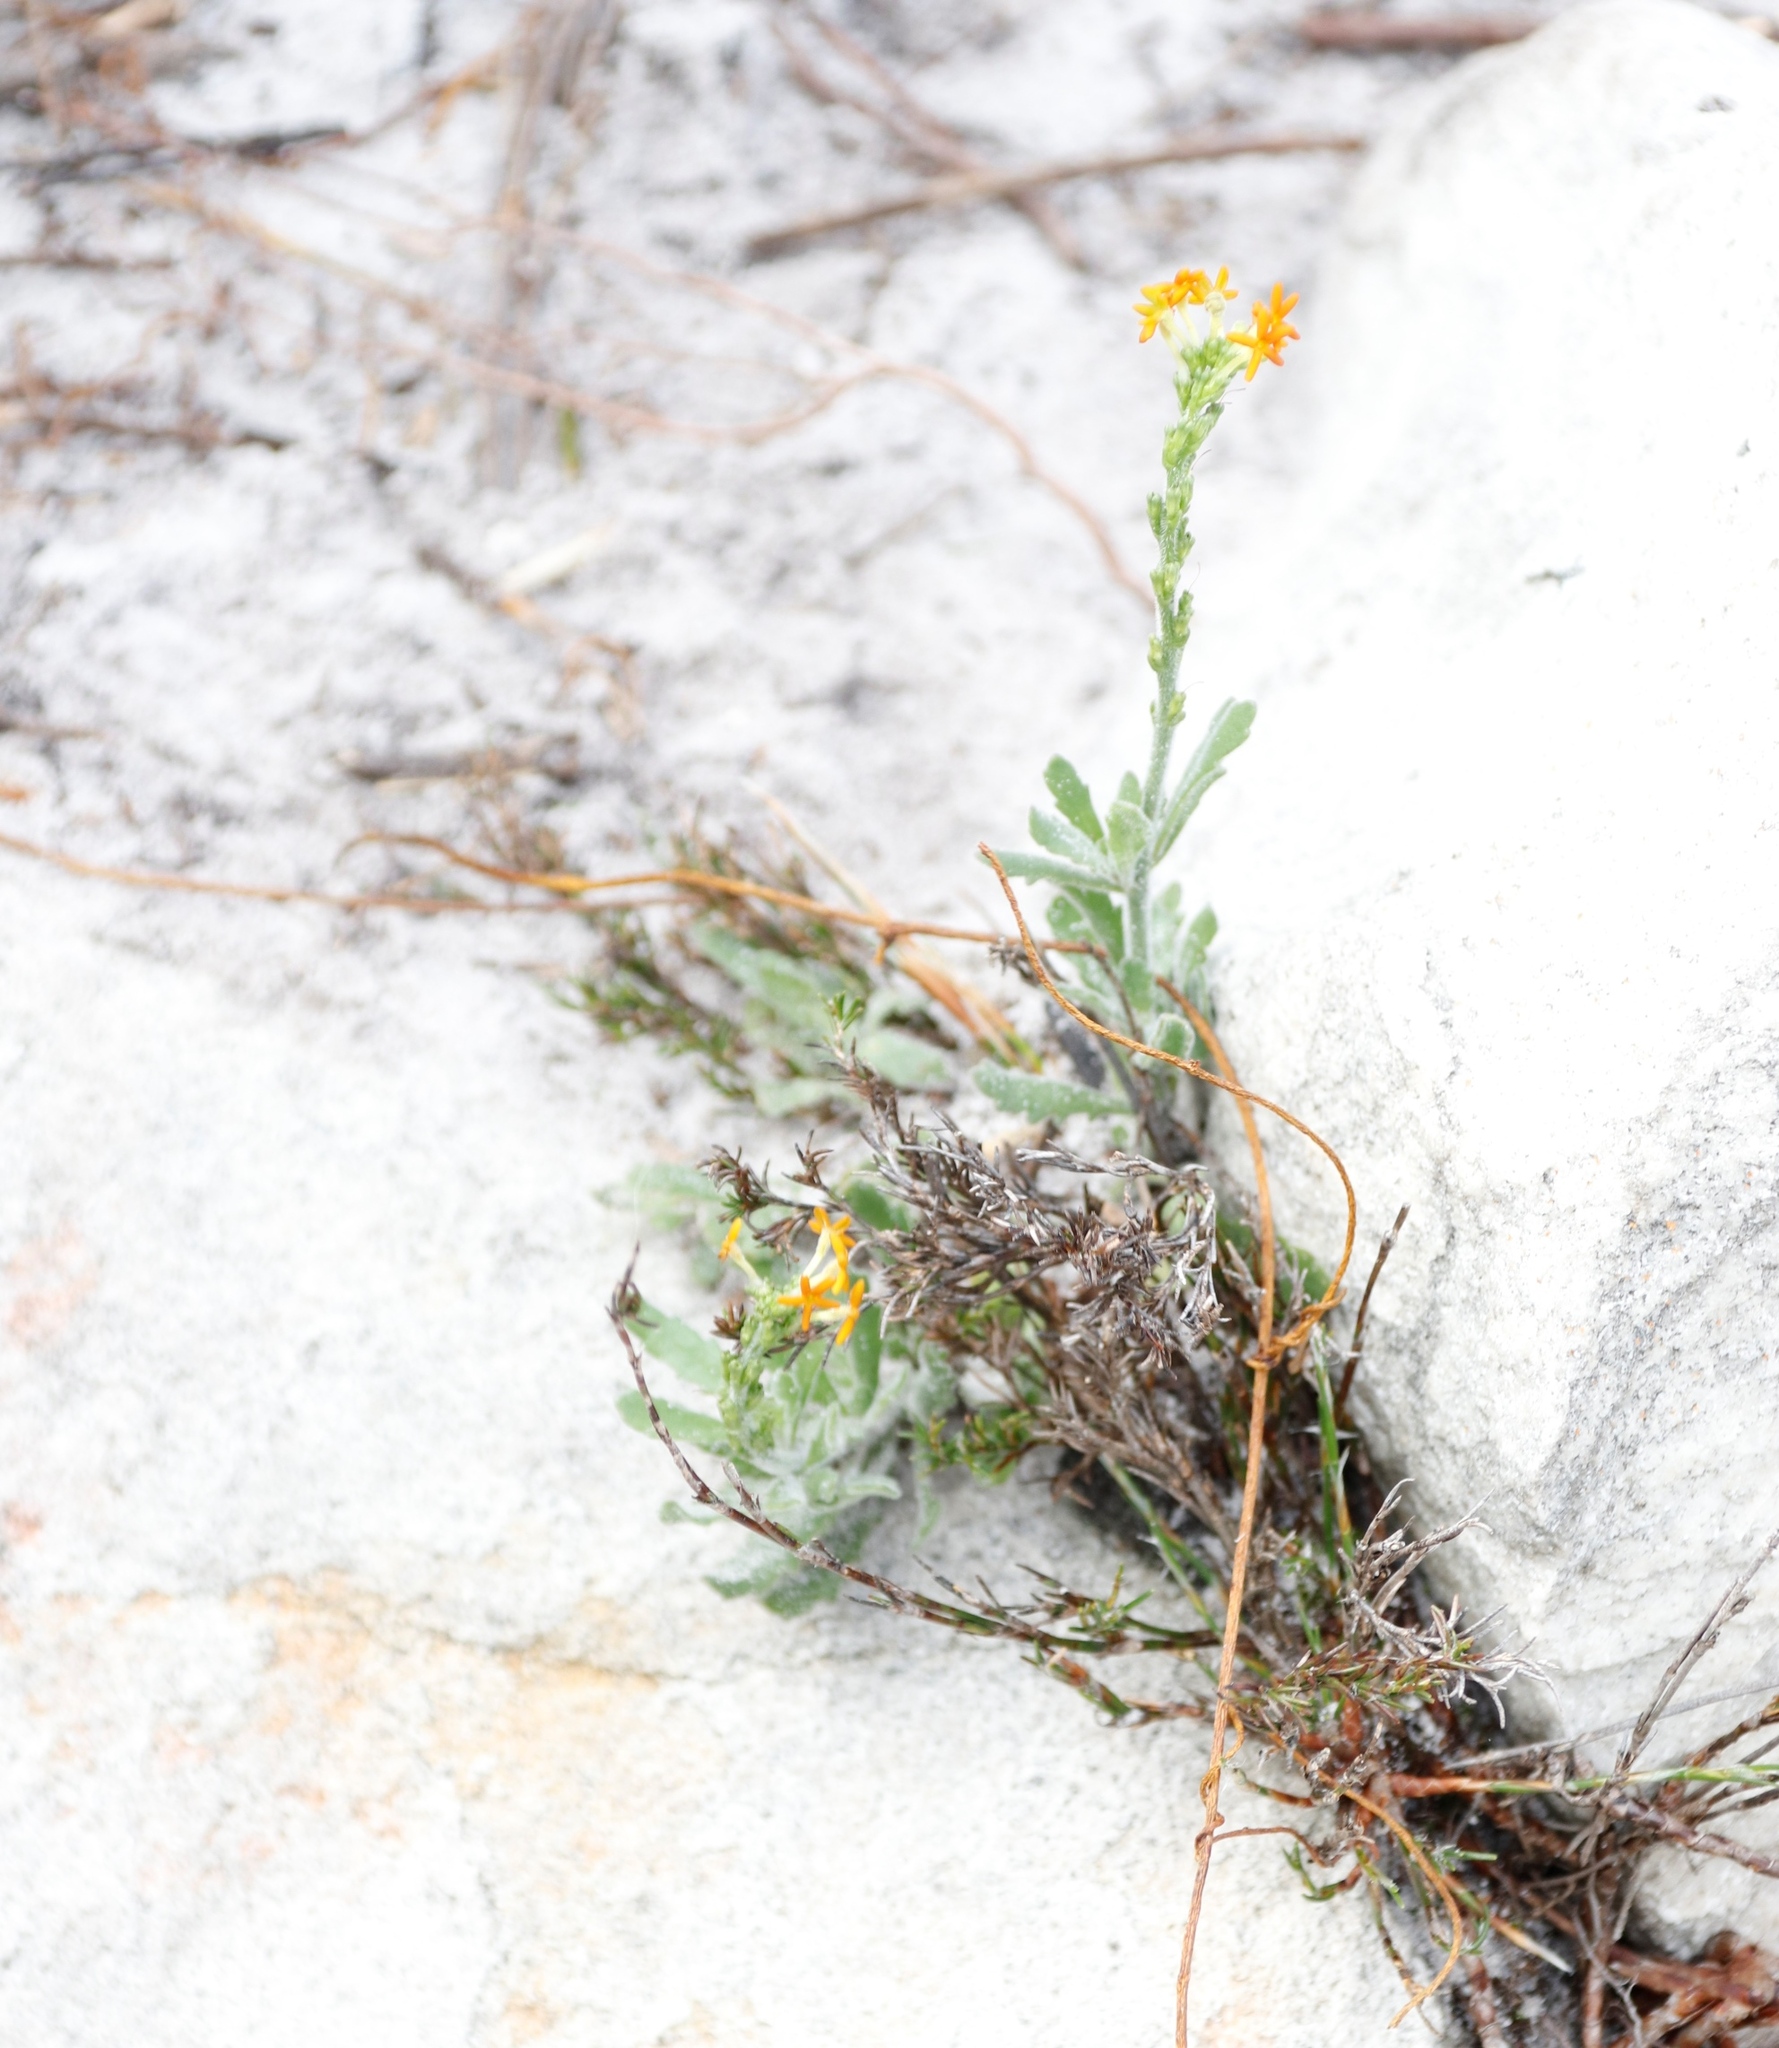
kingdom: Plantae
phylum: Tracheophyta
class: Magnoliopsida
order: Lamiales
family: Scrophulariaceae
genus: Manulea
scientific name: Manulea rubra
